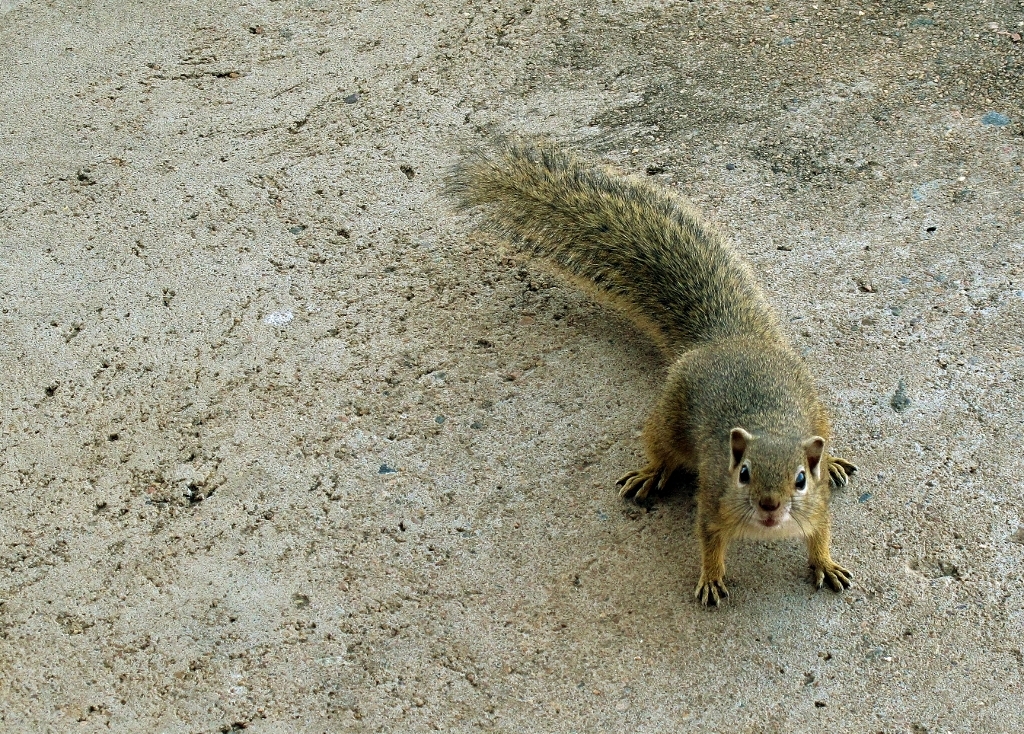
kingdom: Animalia
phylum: Chordata
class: Mammalia
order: Rodentia
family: Sciuridae
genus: Paraxerus
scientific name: Paraxerus cepapi
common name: Smith's bush squirrel
